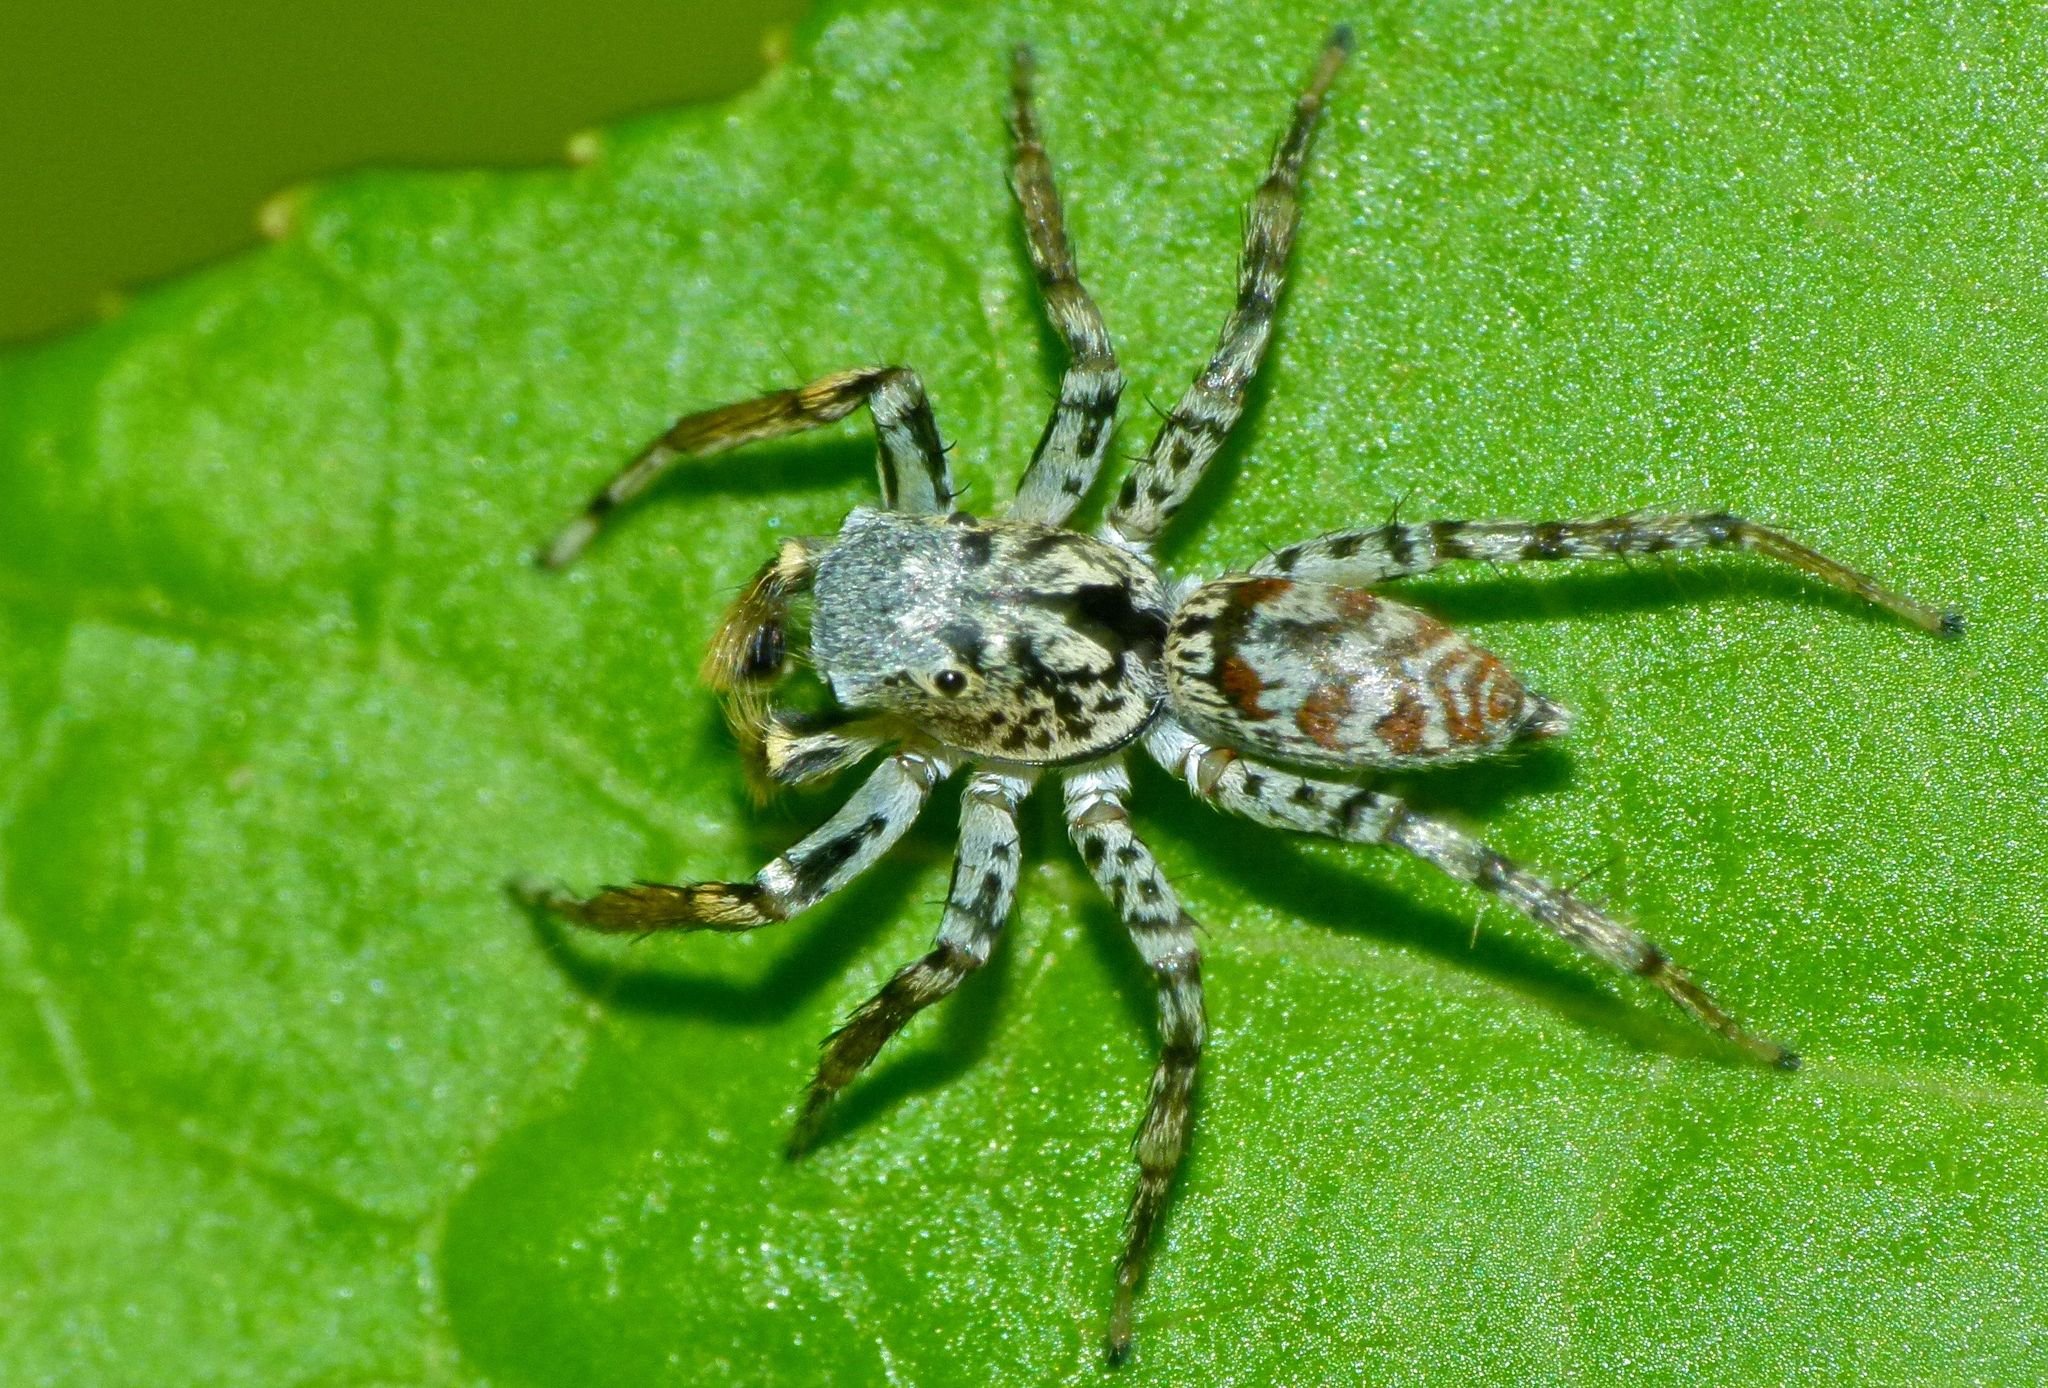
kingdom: Animalia
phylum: Arthropoda
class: Arachnida
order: Araneae
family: Salticidae
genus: Maevia
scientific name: Maevia inclemens
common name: Dimorphic jumper
